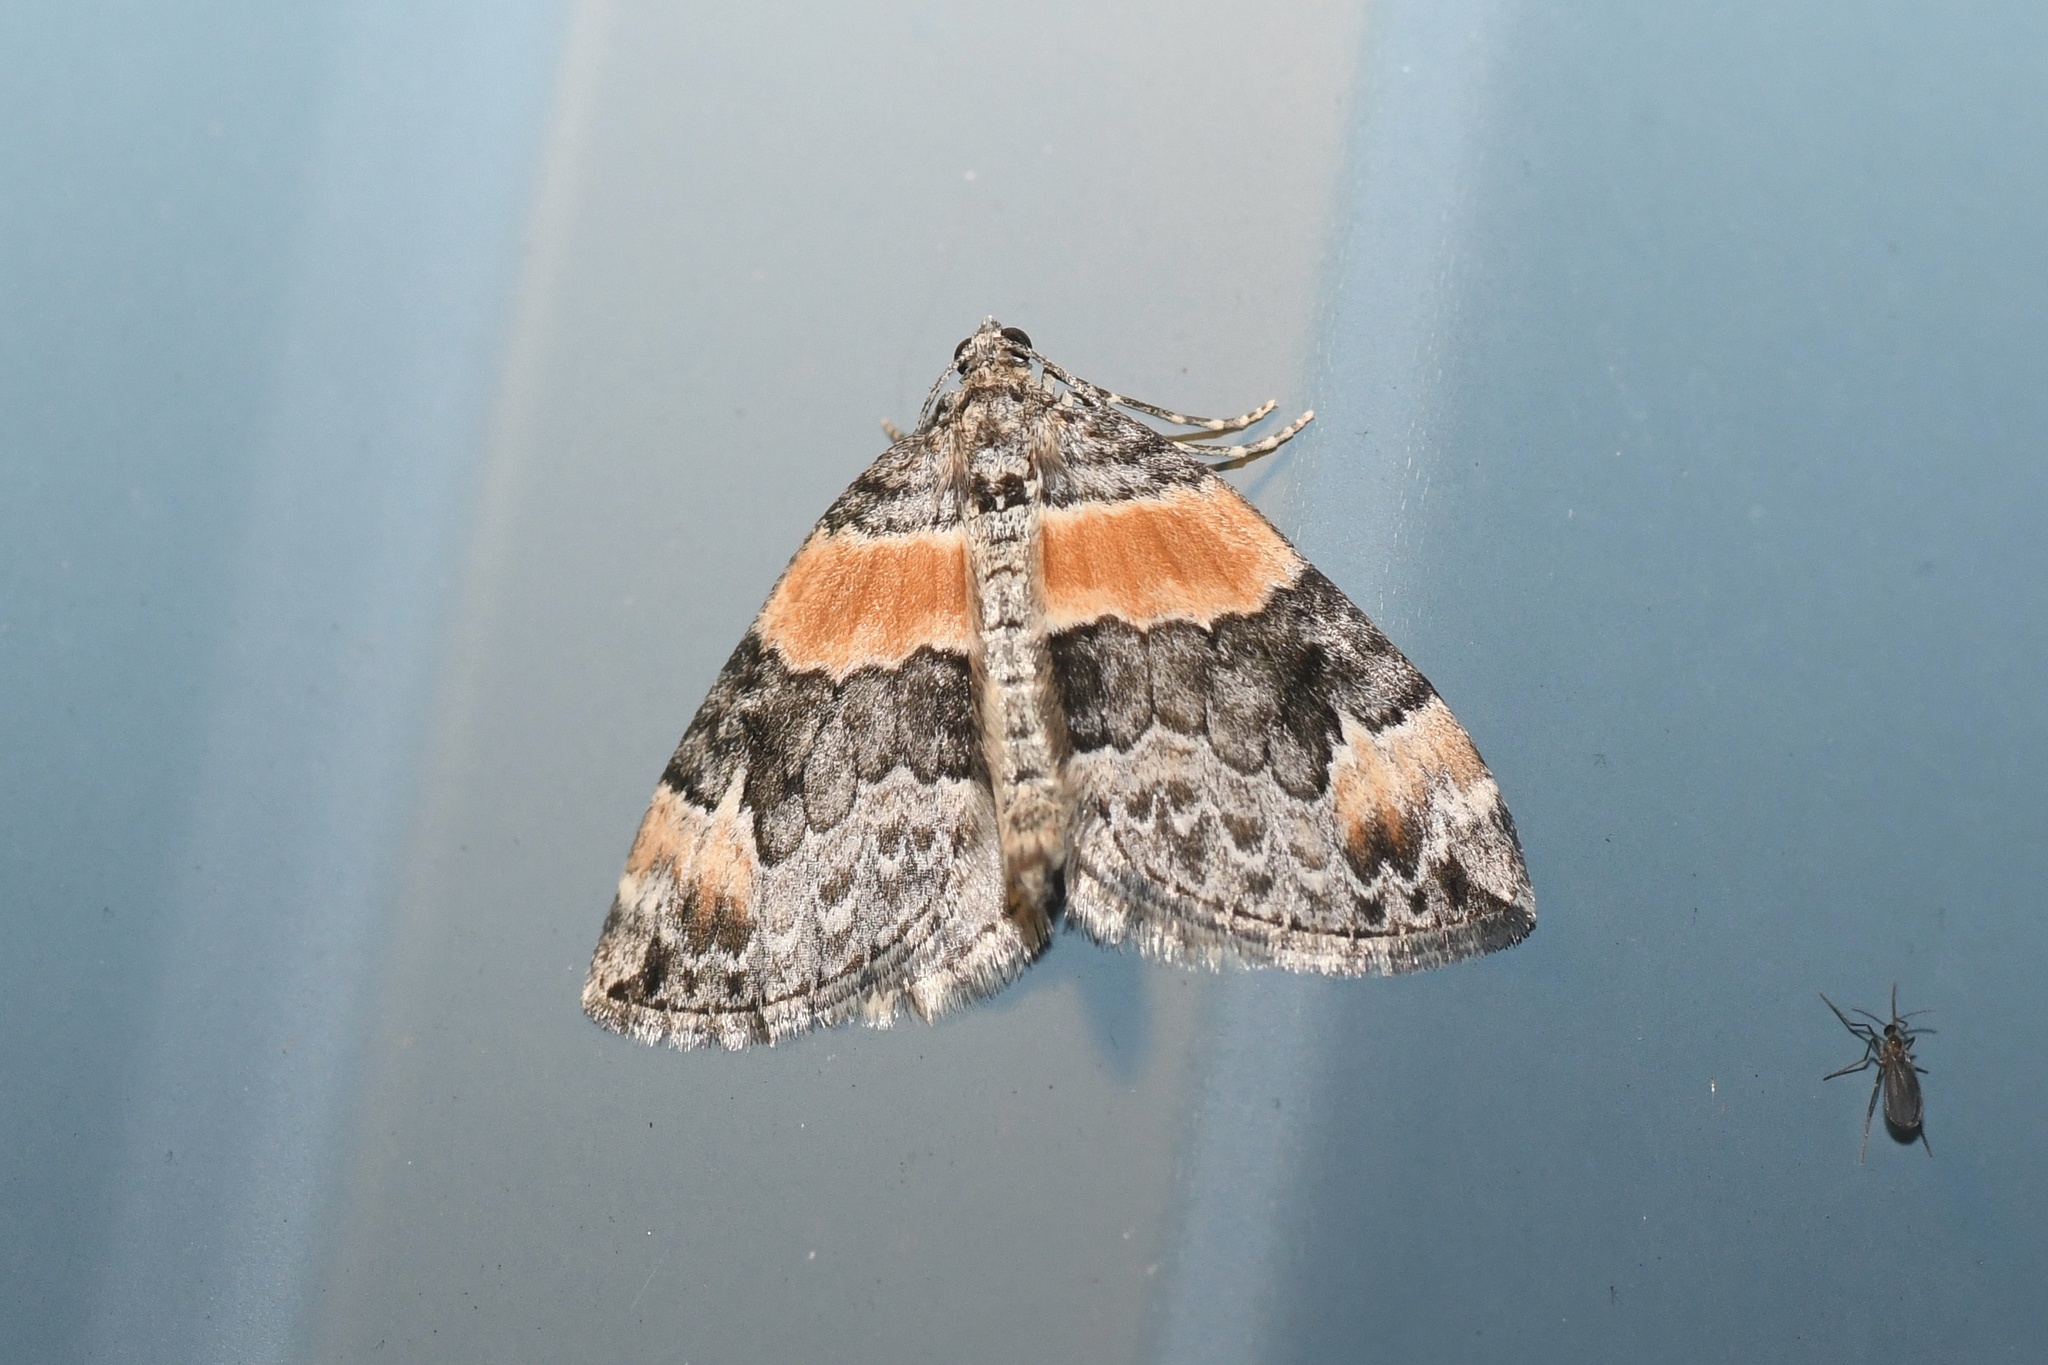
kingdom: Animalia
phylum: Arthropoda
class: Insecta
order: Lepidoptera
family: Geometridae
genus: Dysstroma
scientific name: Dysstroma hersiliata
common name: Orange-barred carpet
